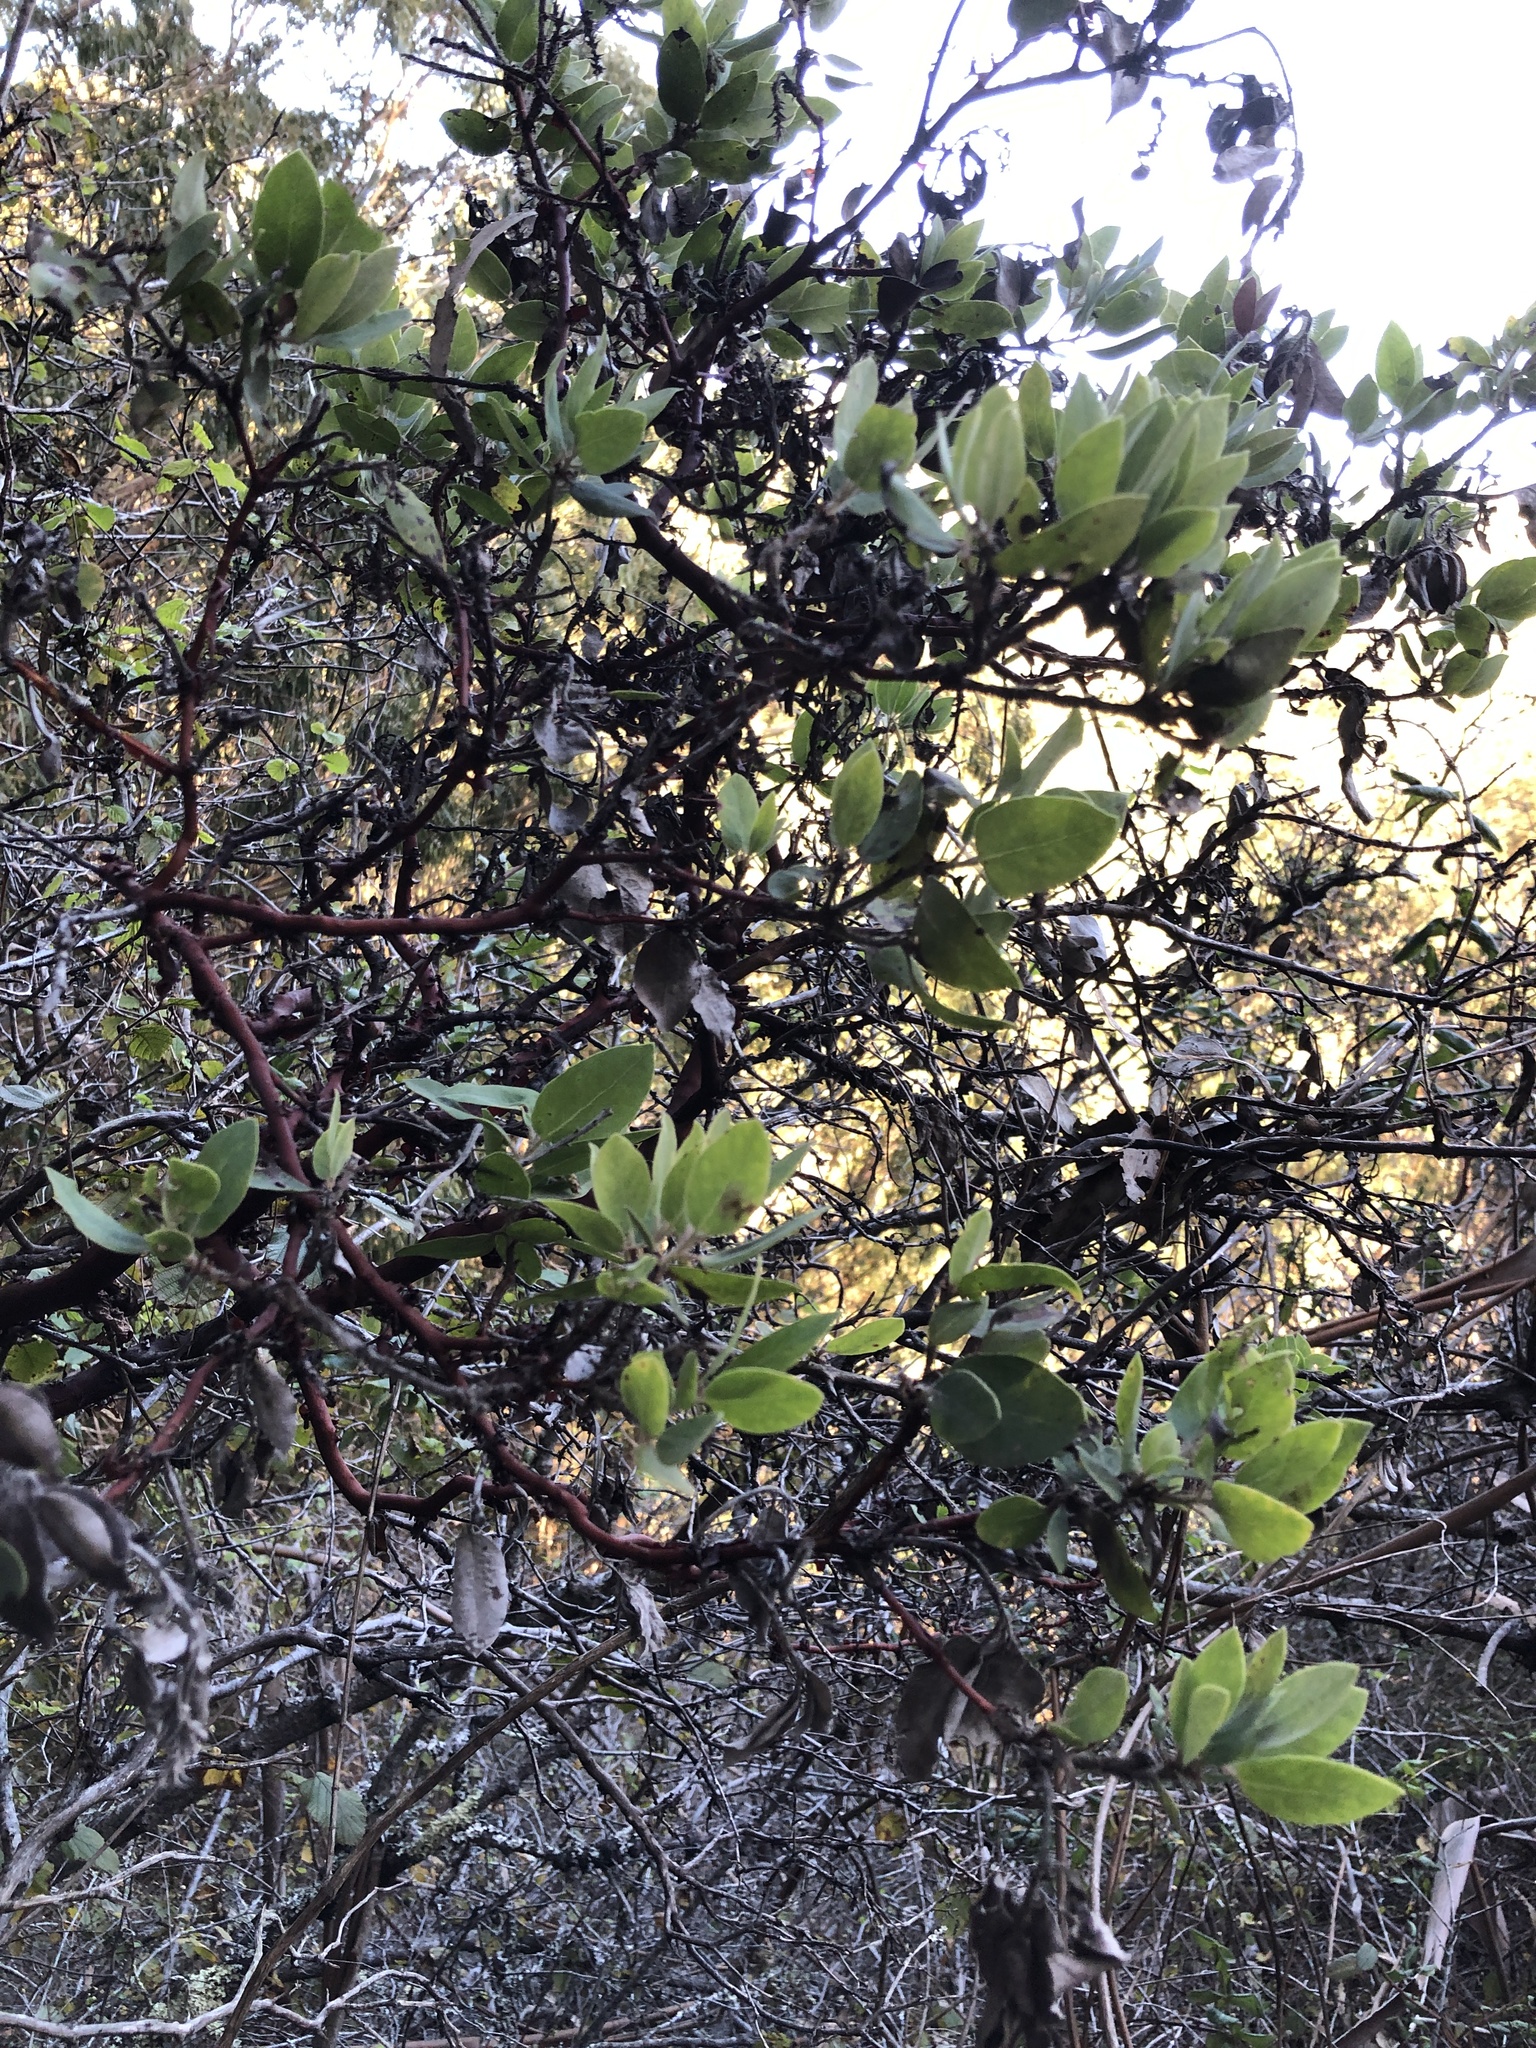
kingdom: Plantae
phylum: Tracheophyta
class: Magnoliopsida
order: Ericales
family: Ericaceae
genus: Arctostaphylos
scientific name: Arctostaphylos crustacea
